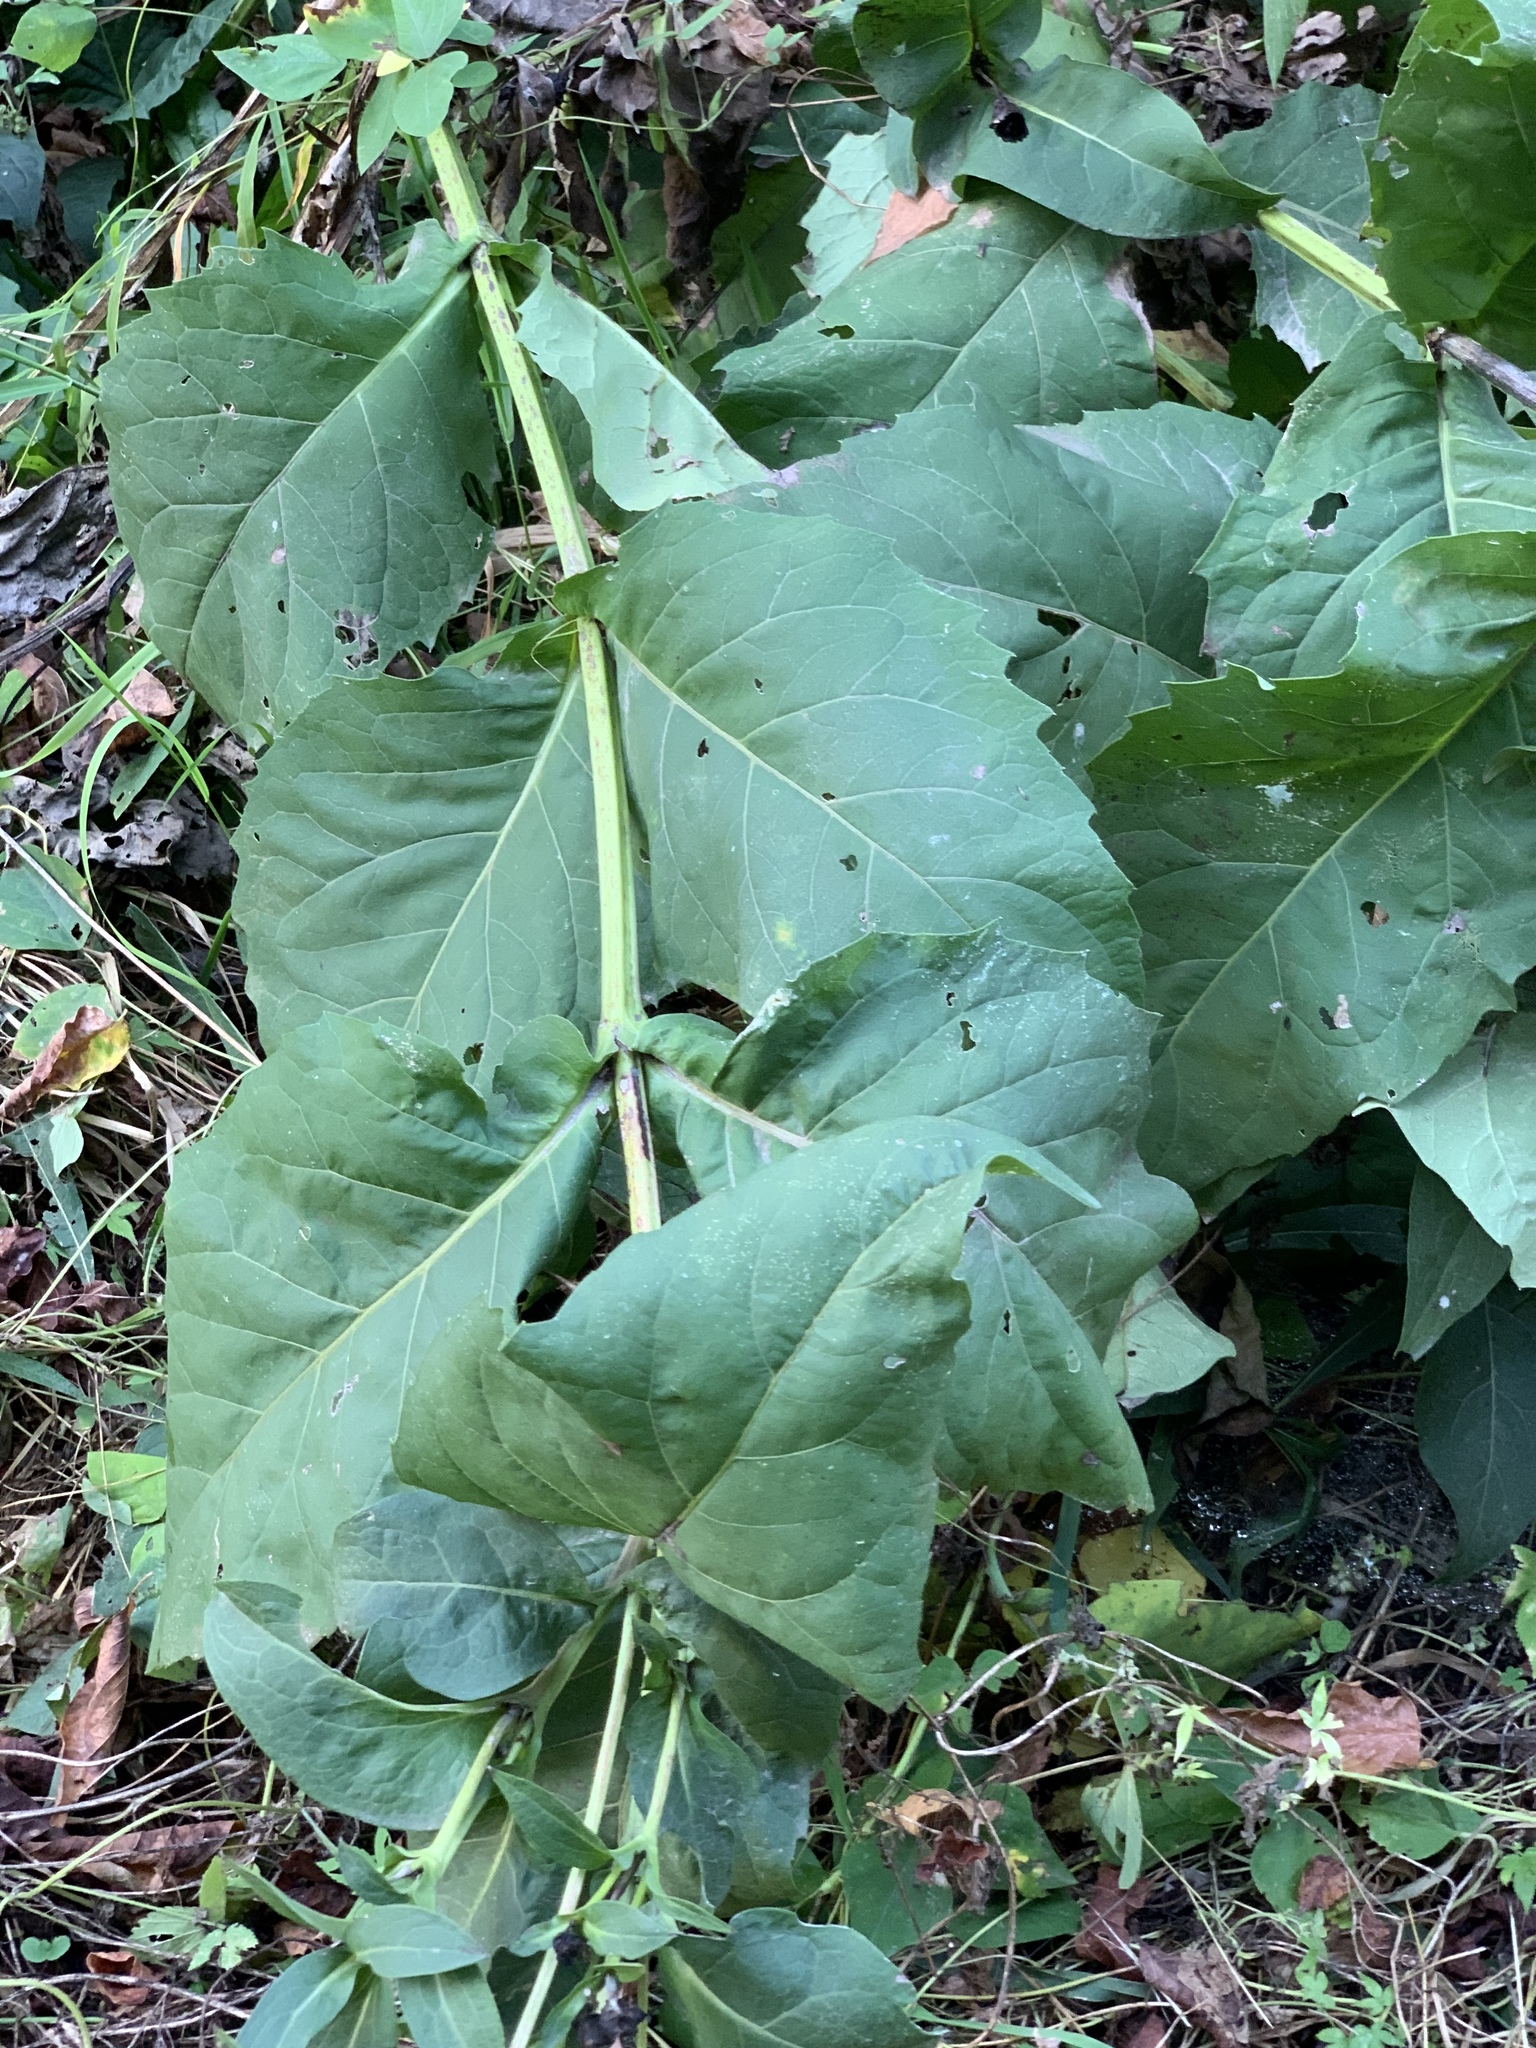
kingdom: Plantae
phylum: Tracheophyta
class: Magnoliopsida
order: Asterales
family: Asteraceae
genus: Silphium
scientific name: Silphium perfoliatum
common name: Cup-plant
